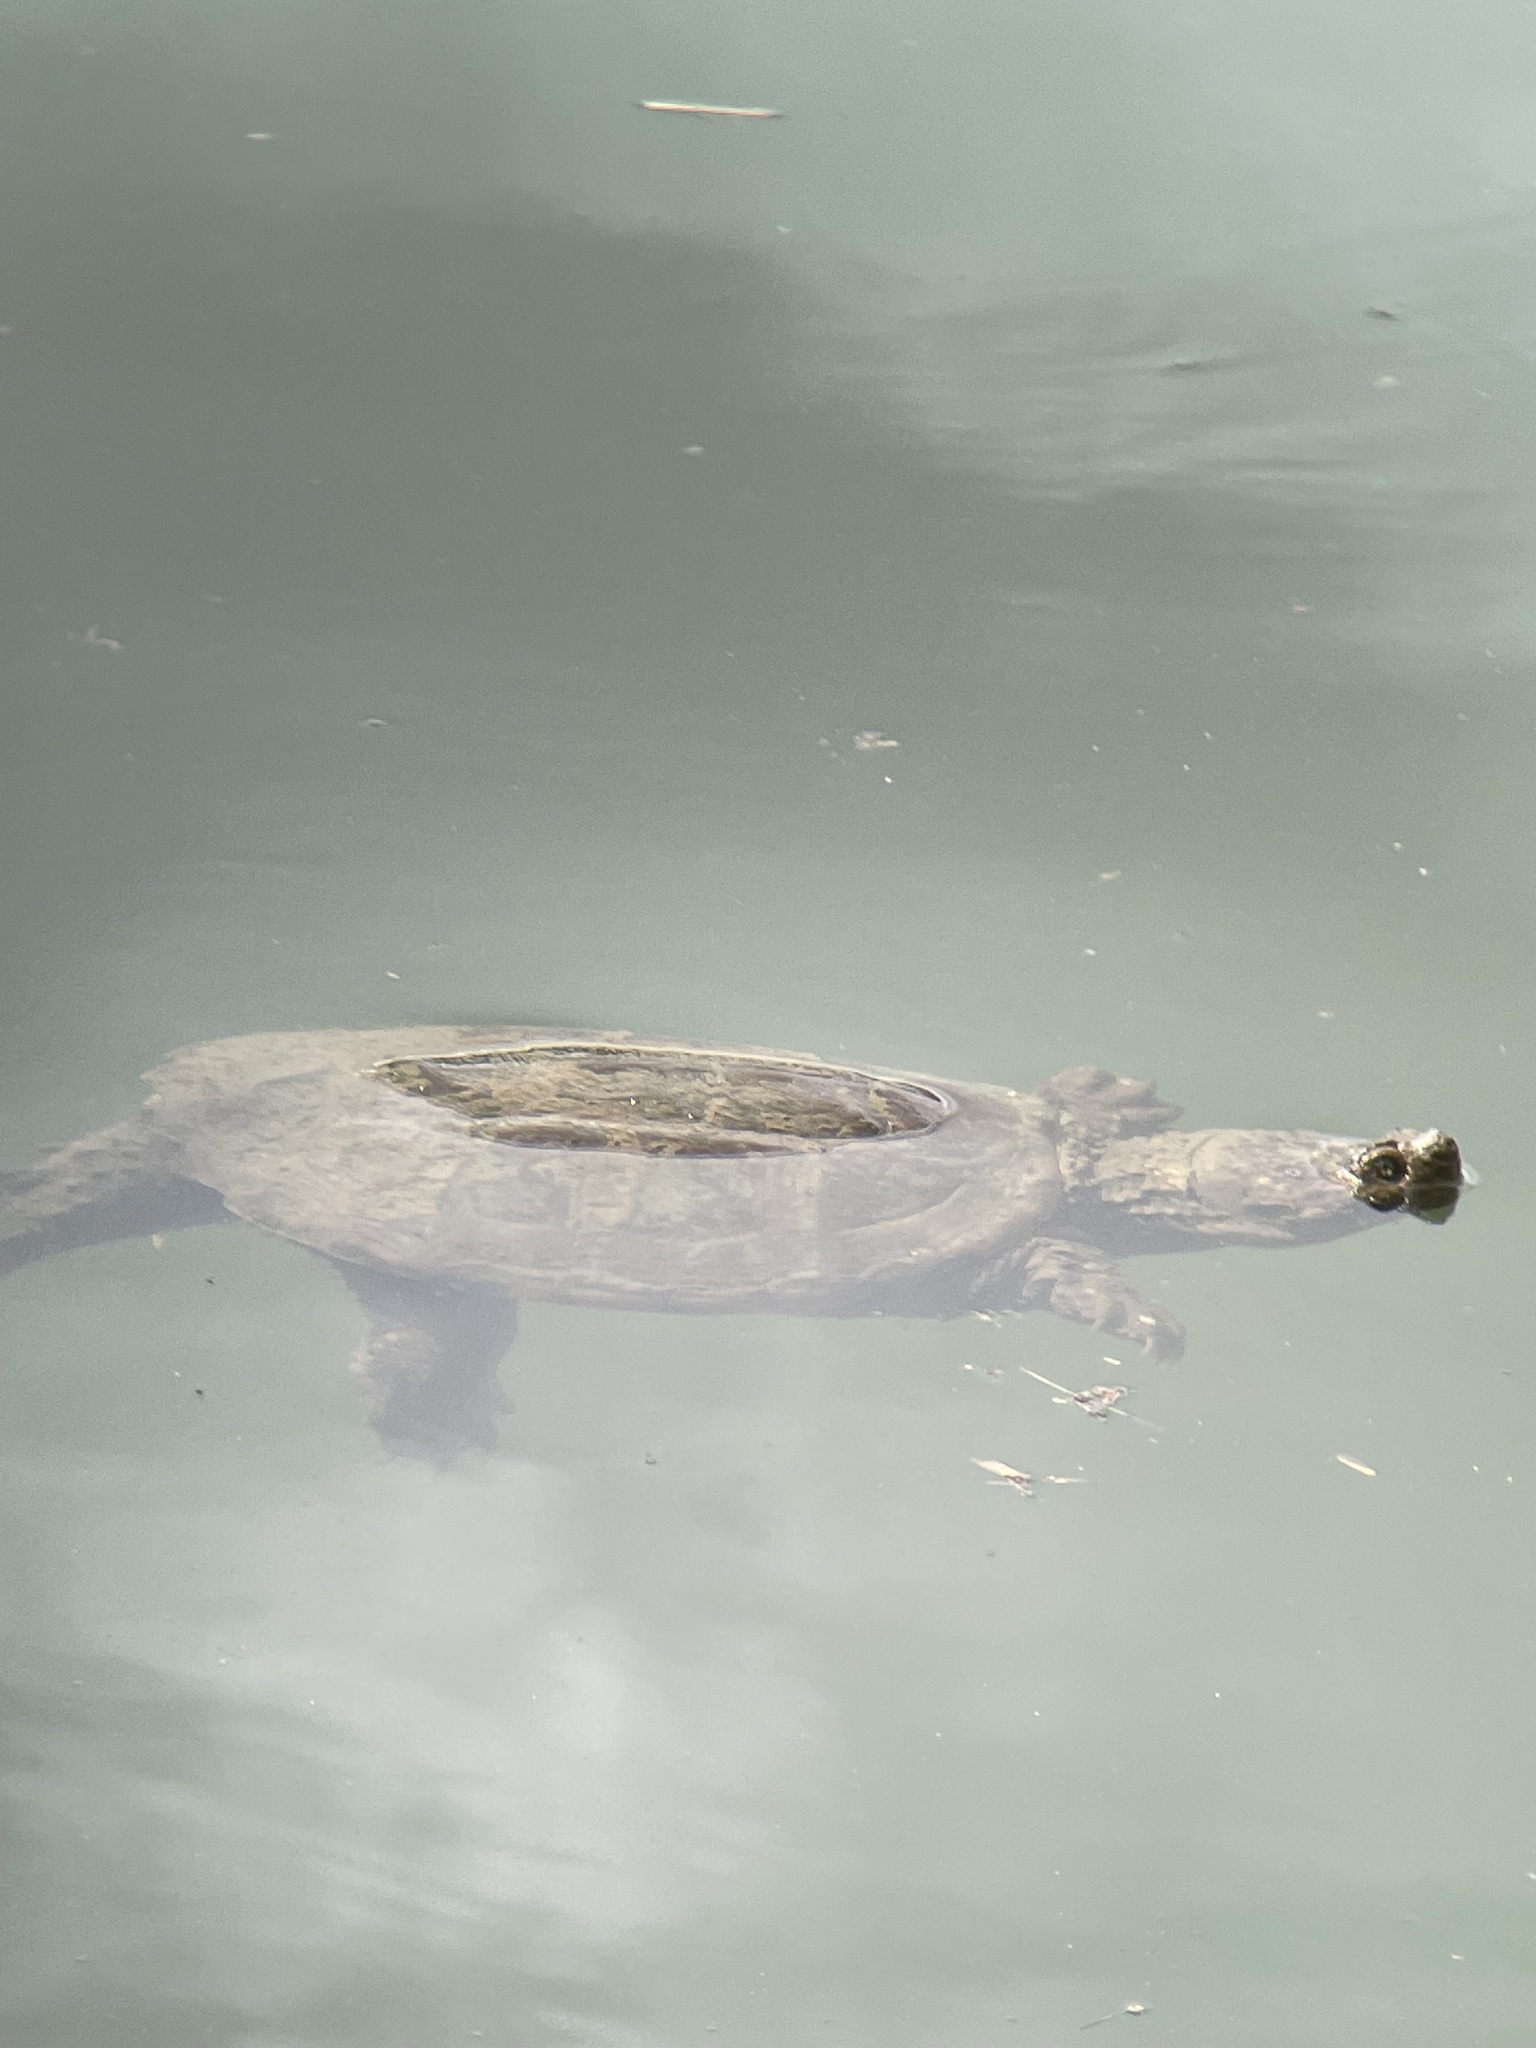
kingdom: Animalia
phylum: Chordata
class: Testudines
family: Chelydridae
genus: Chelydra
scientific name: Chelydra serpentina
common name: Common snapping turtle
